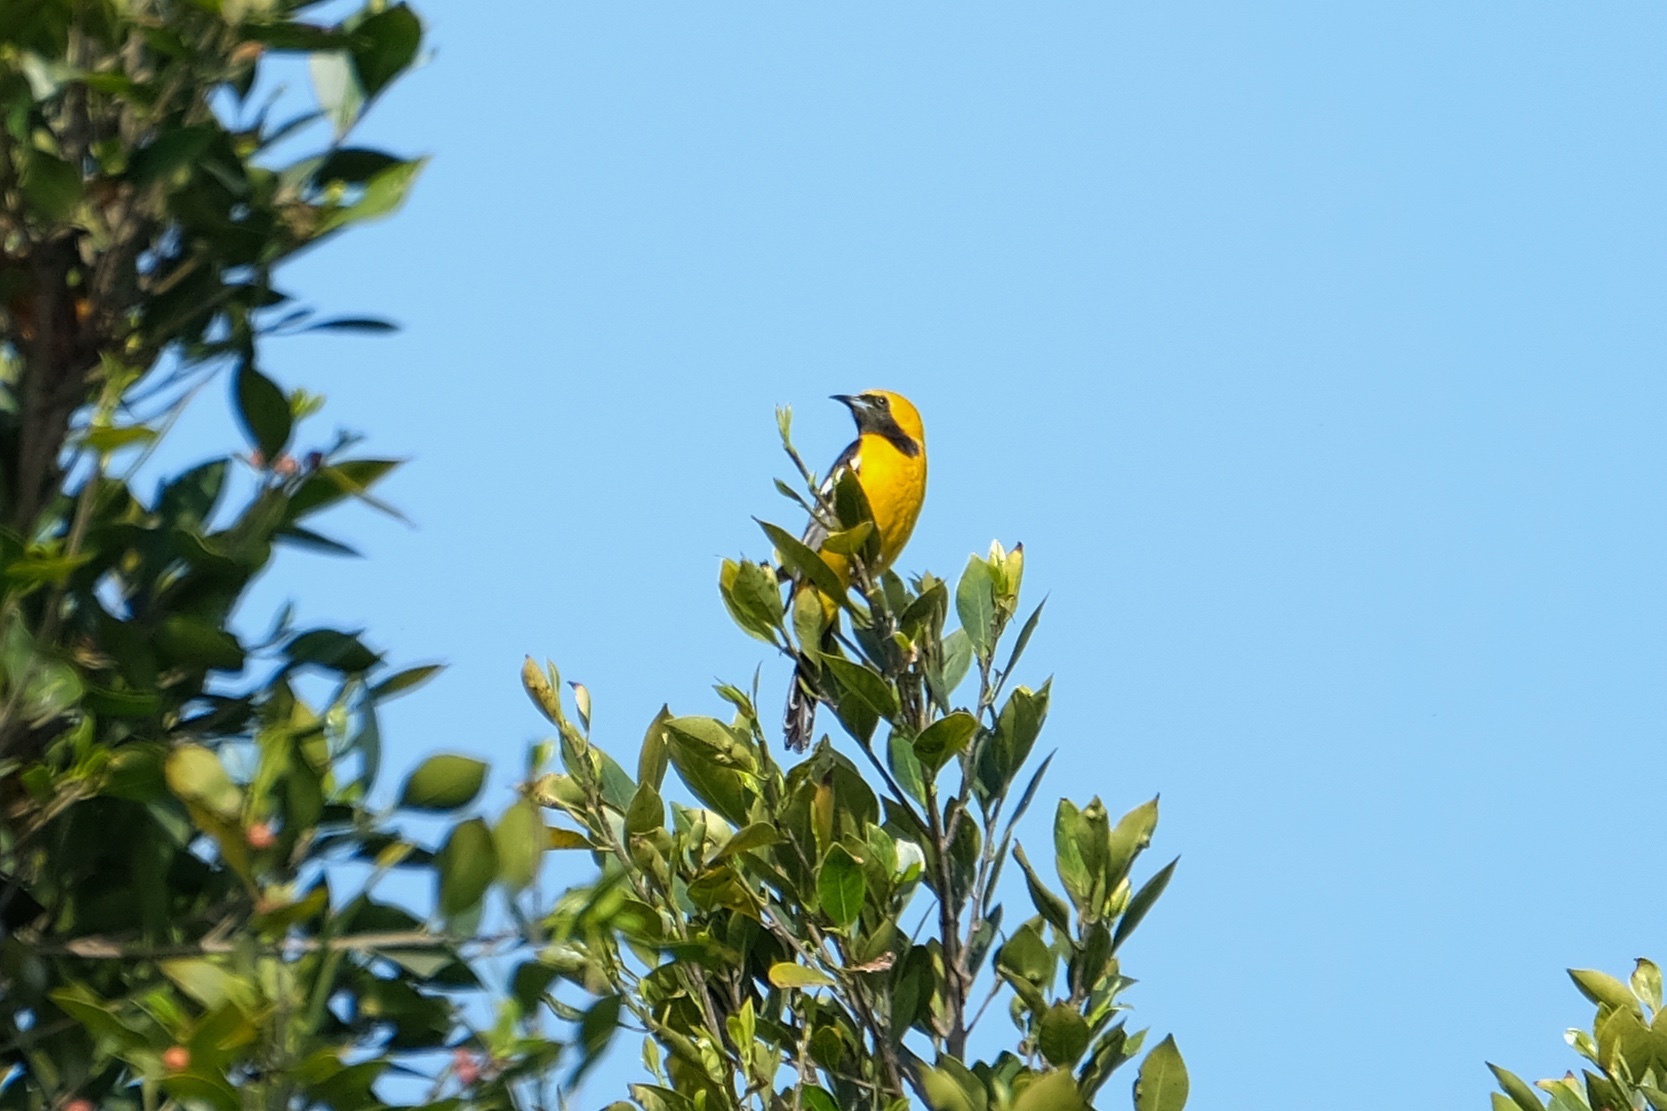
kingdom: Animalia
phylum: Chordata
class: Aves
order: Passeriformes
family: Icteridae
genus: Icterus
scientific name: Icterus cucullatus
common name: Hooded oriole
